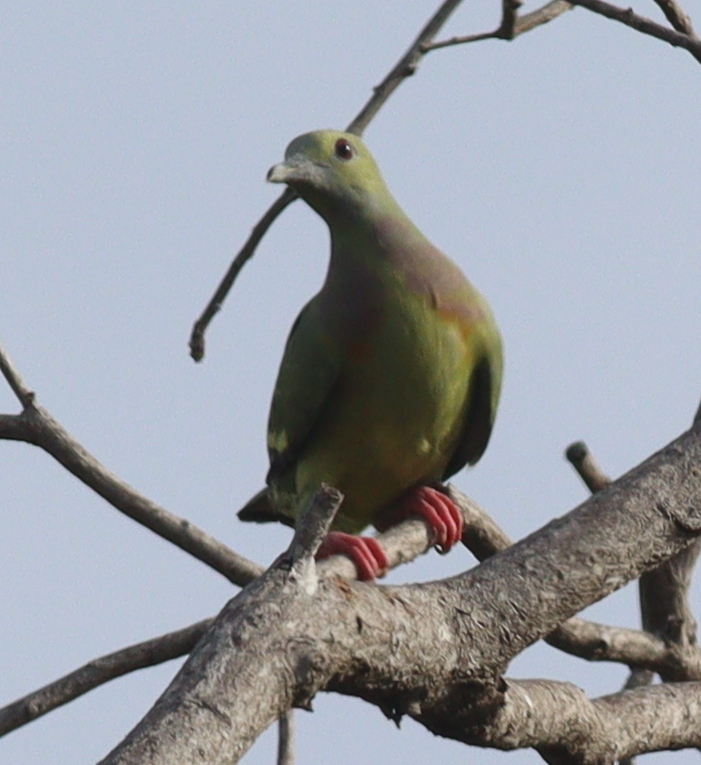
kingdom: Animalia
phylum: Chordata
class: Aves
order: Columbiformes
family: Columbidae
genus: Treron
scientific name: Treron vernans
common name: Pink-necked green pigeon
